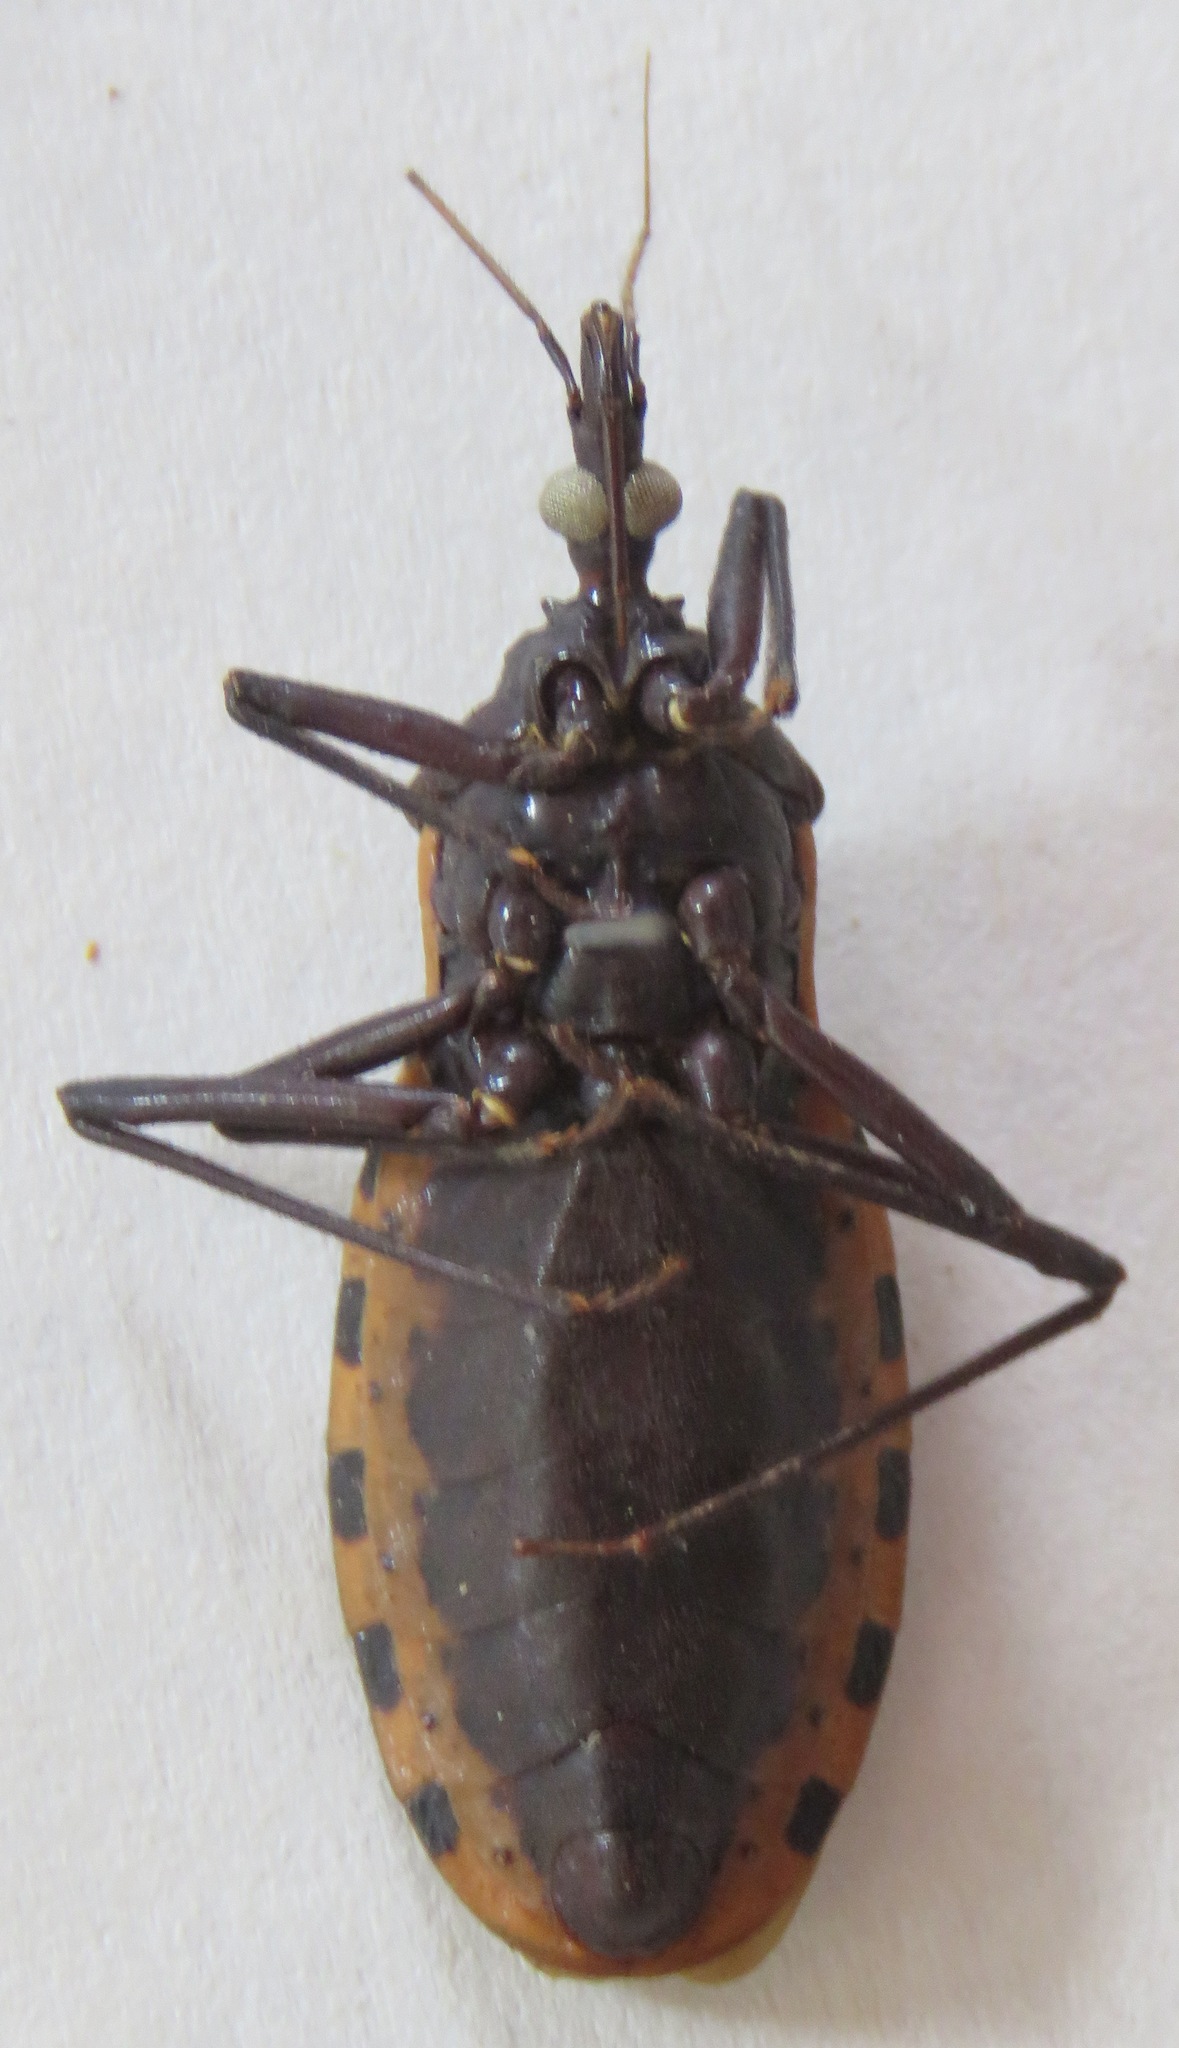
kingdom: Animalia
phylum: Arthropoda
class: Insecta
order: Hemiptera
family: Reduviidae
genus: Meccus
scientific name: Meccus dimidiatus
